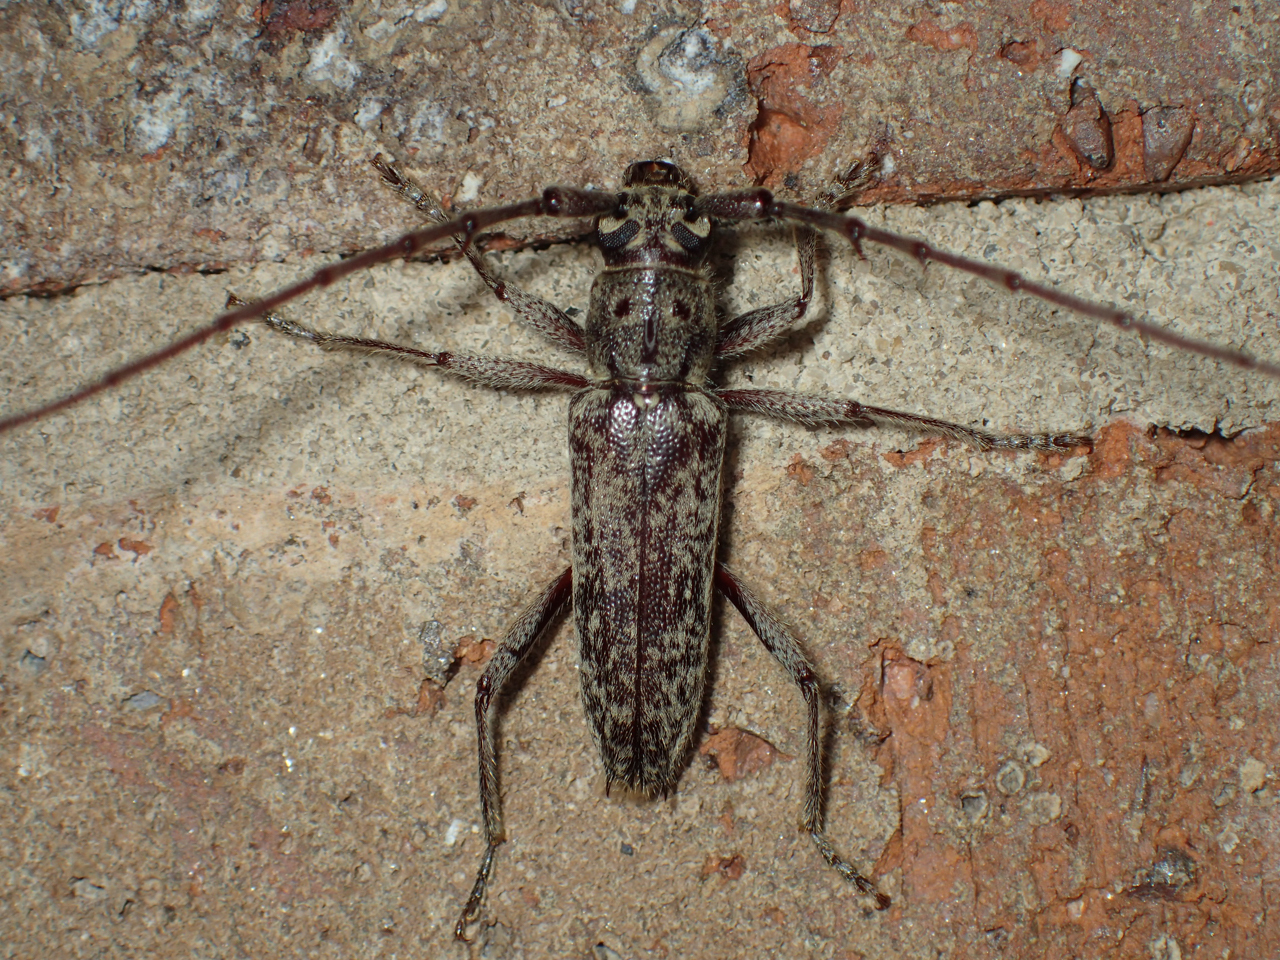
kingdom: Animalia
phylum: Arthropoda
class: Insecta
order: Coleoptera
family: Cerambycidae
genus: Elaphidion
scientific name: Elaphidion mucronatum
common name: Spined oak borer
